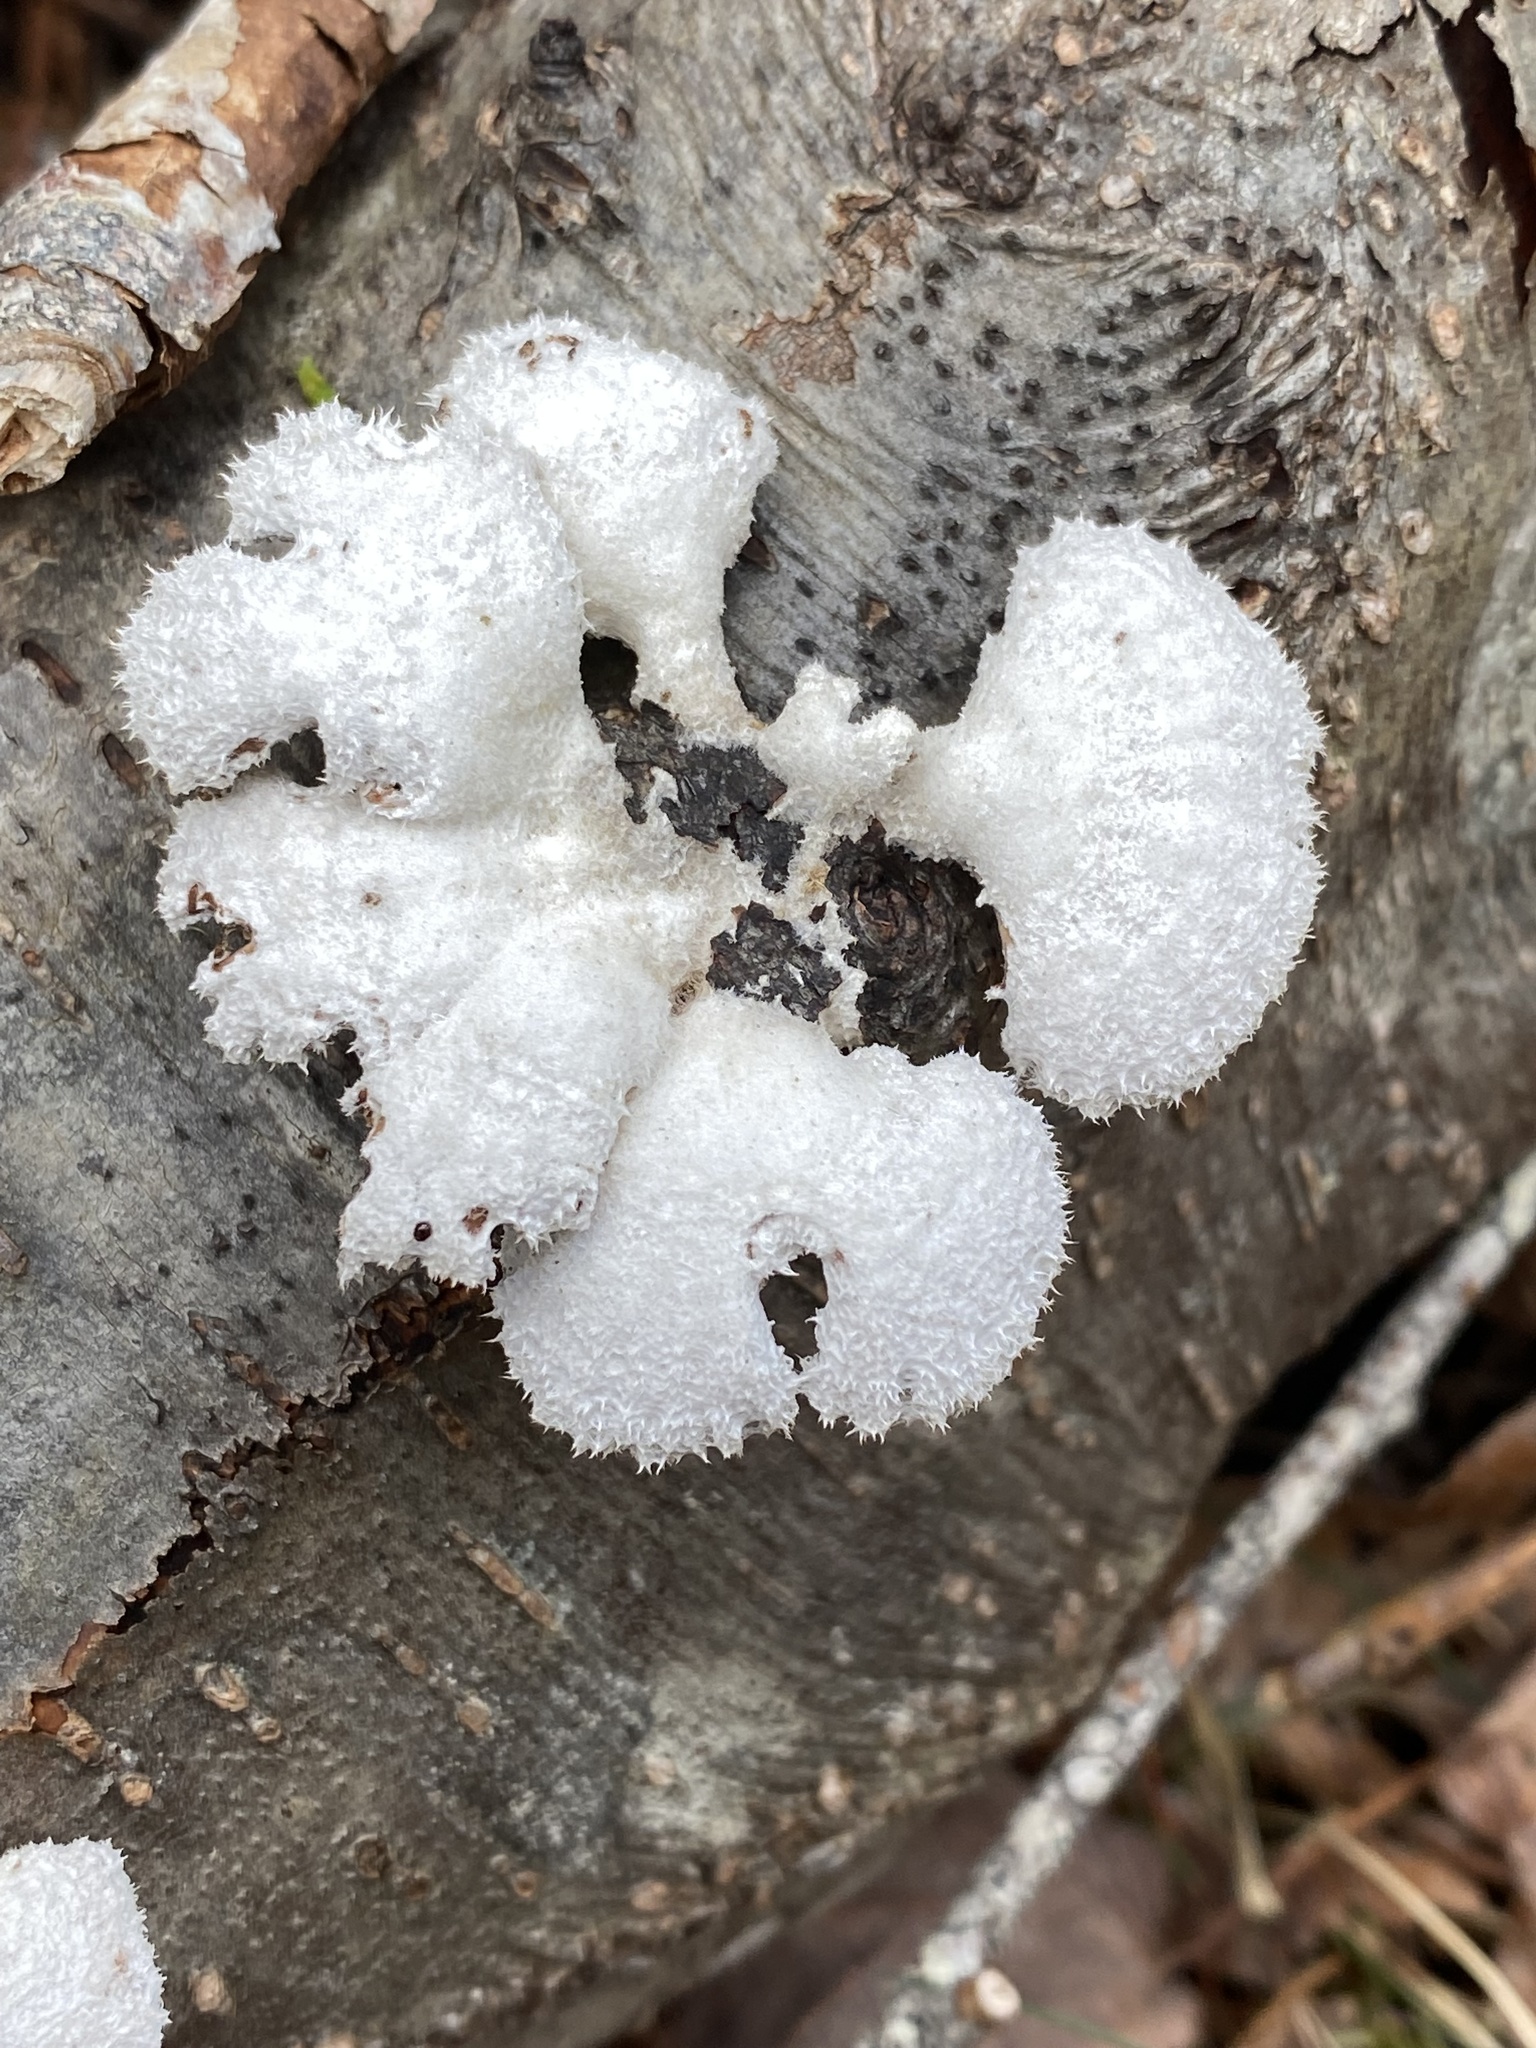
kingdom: Fungi
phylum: Basidiomycota
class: Agaricomycetes
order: Agaricales
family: Schizophyllaceae
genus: Schizophyllum
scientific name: Schizophyllum commune
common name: Common porecrust
